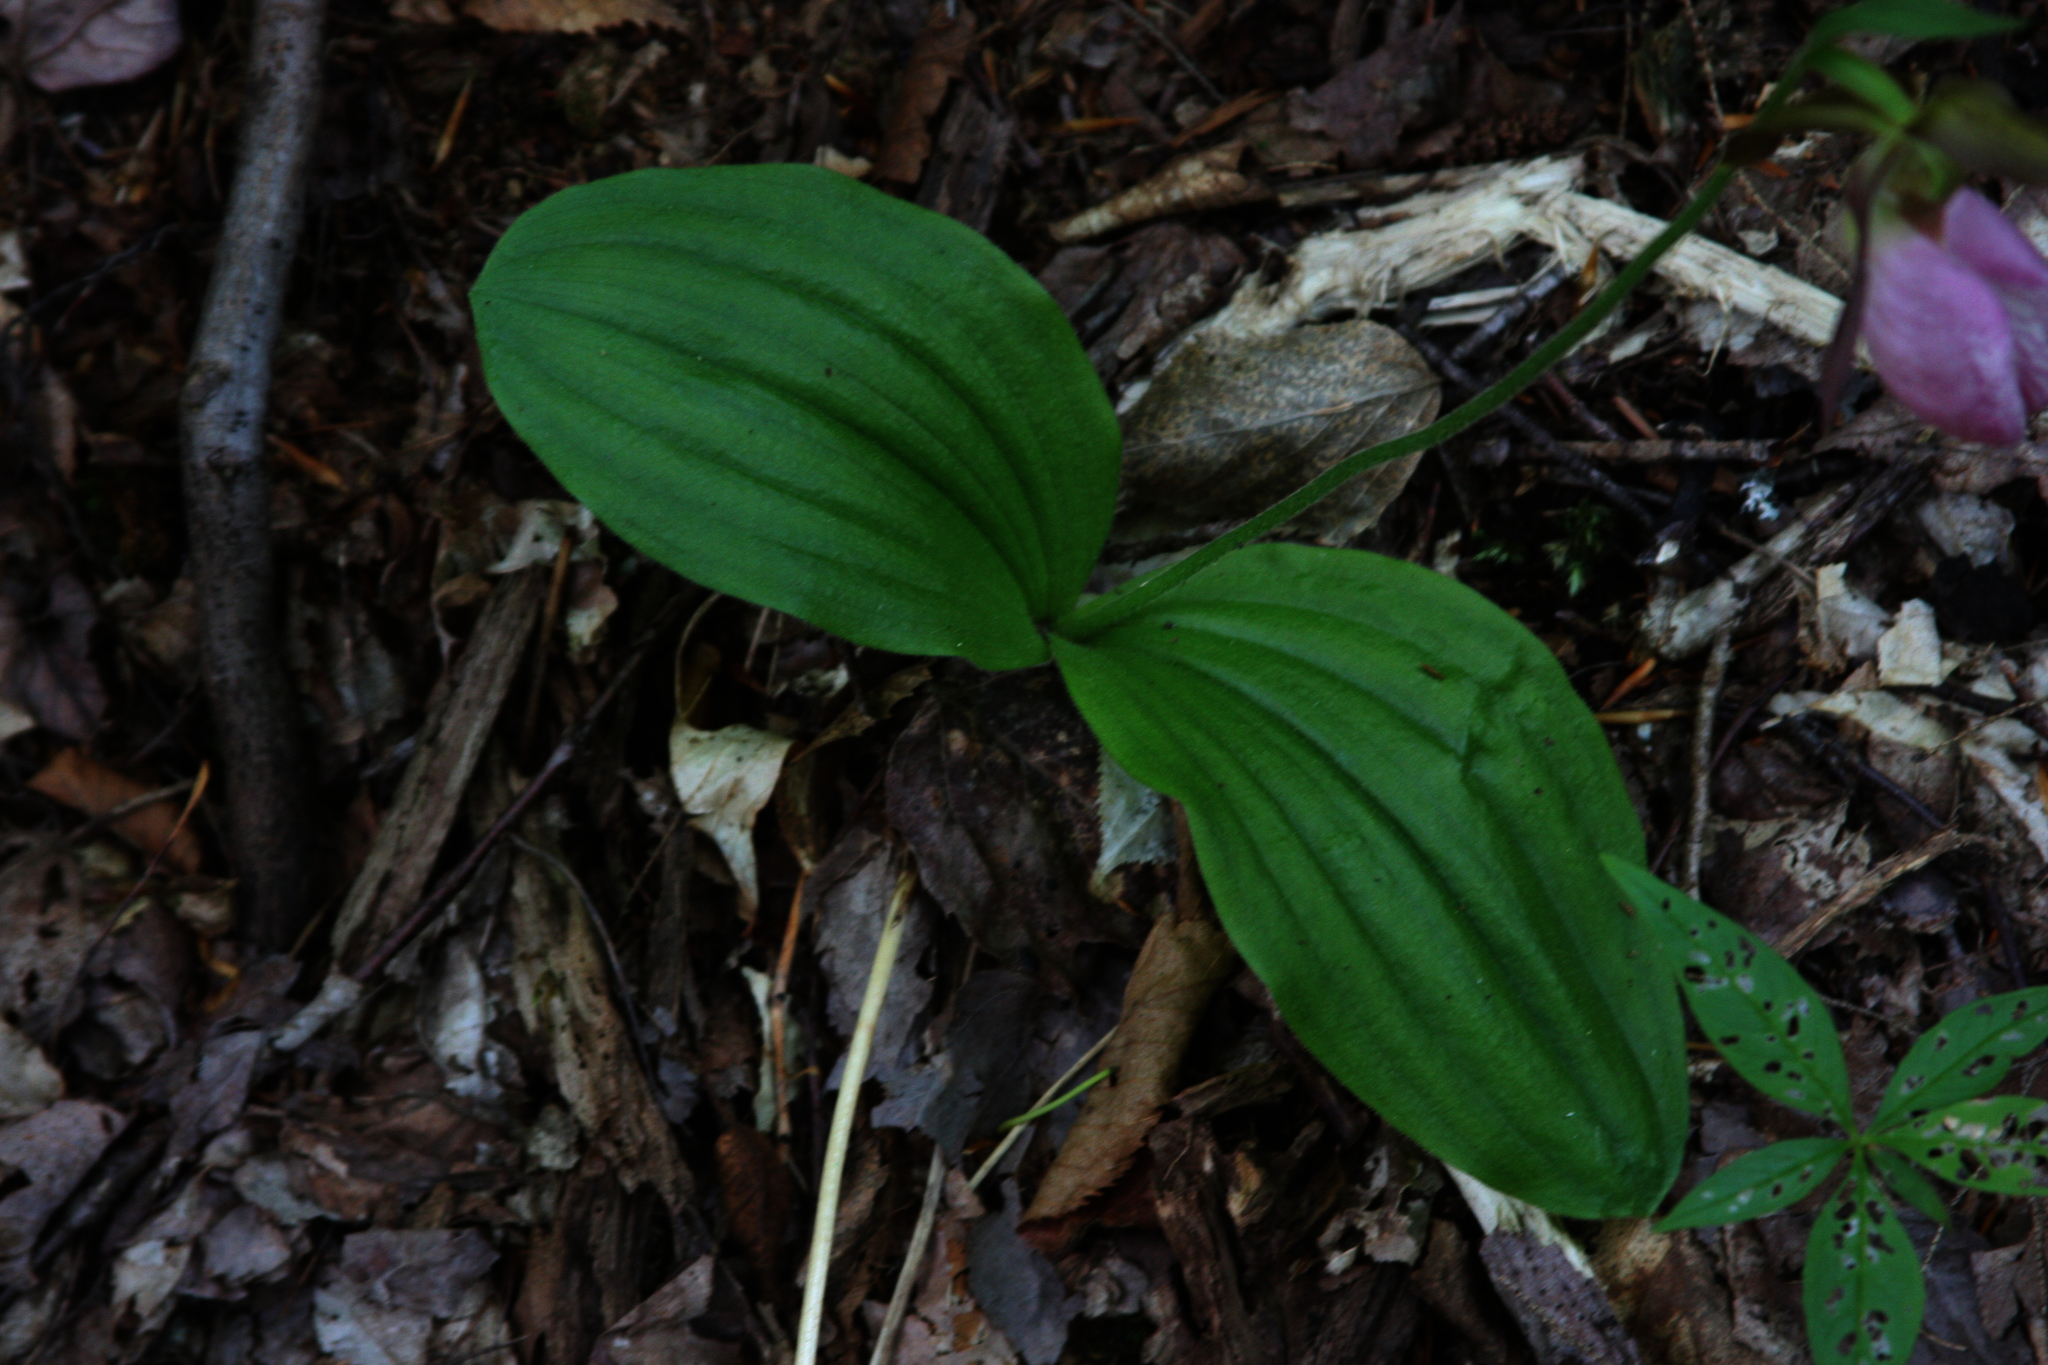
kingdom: Plantae
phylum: Tracheophyta
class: Liliopsida
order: Asparagales
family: Orchidaceae
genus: Cypripedium
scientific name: Cypripedium acaule
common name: Pink lady's-slipper
